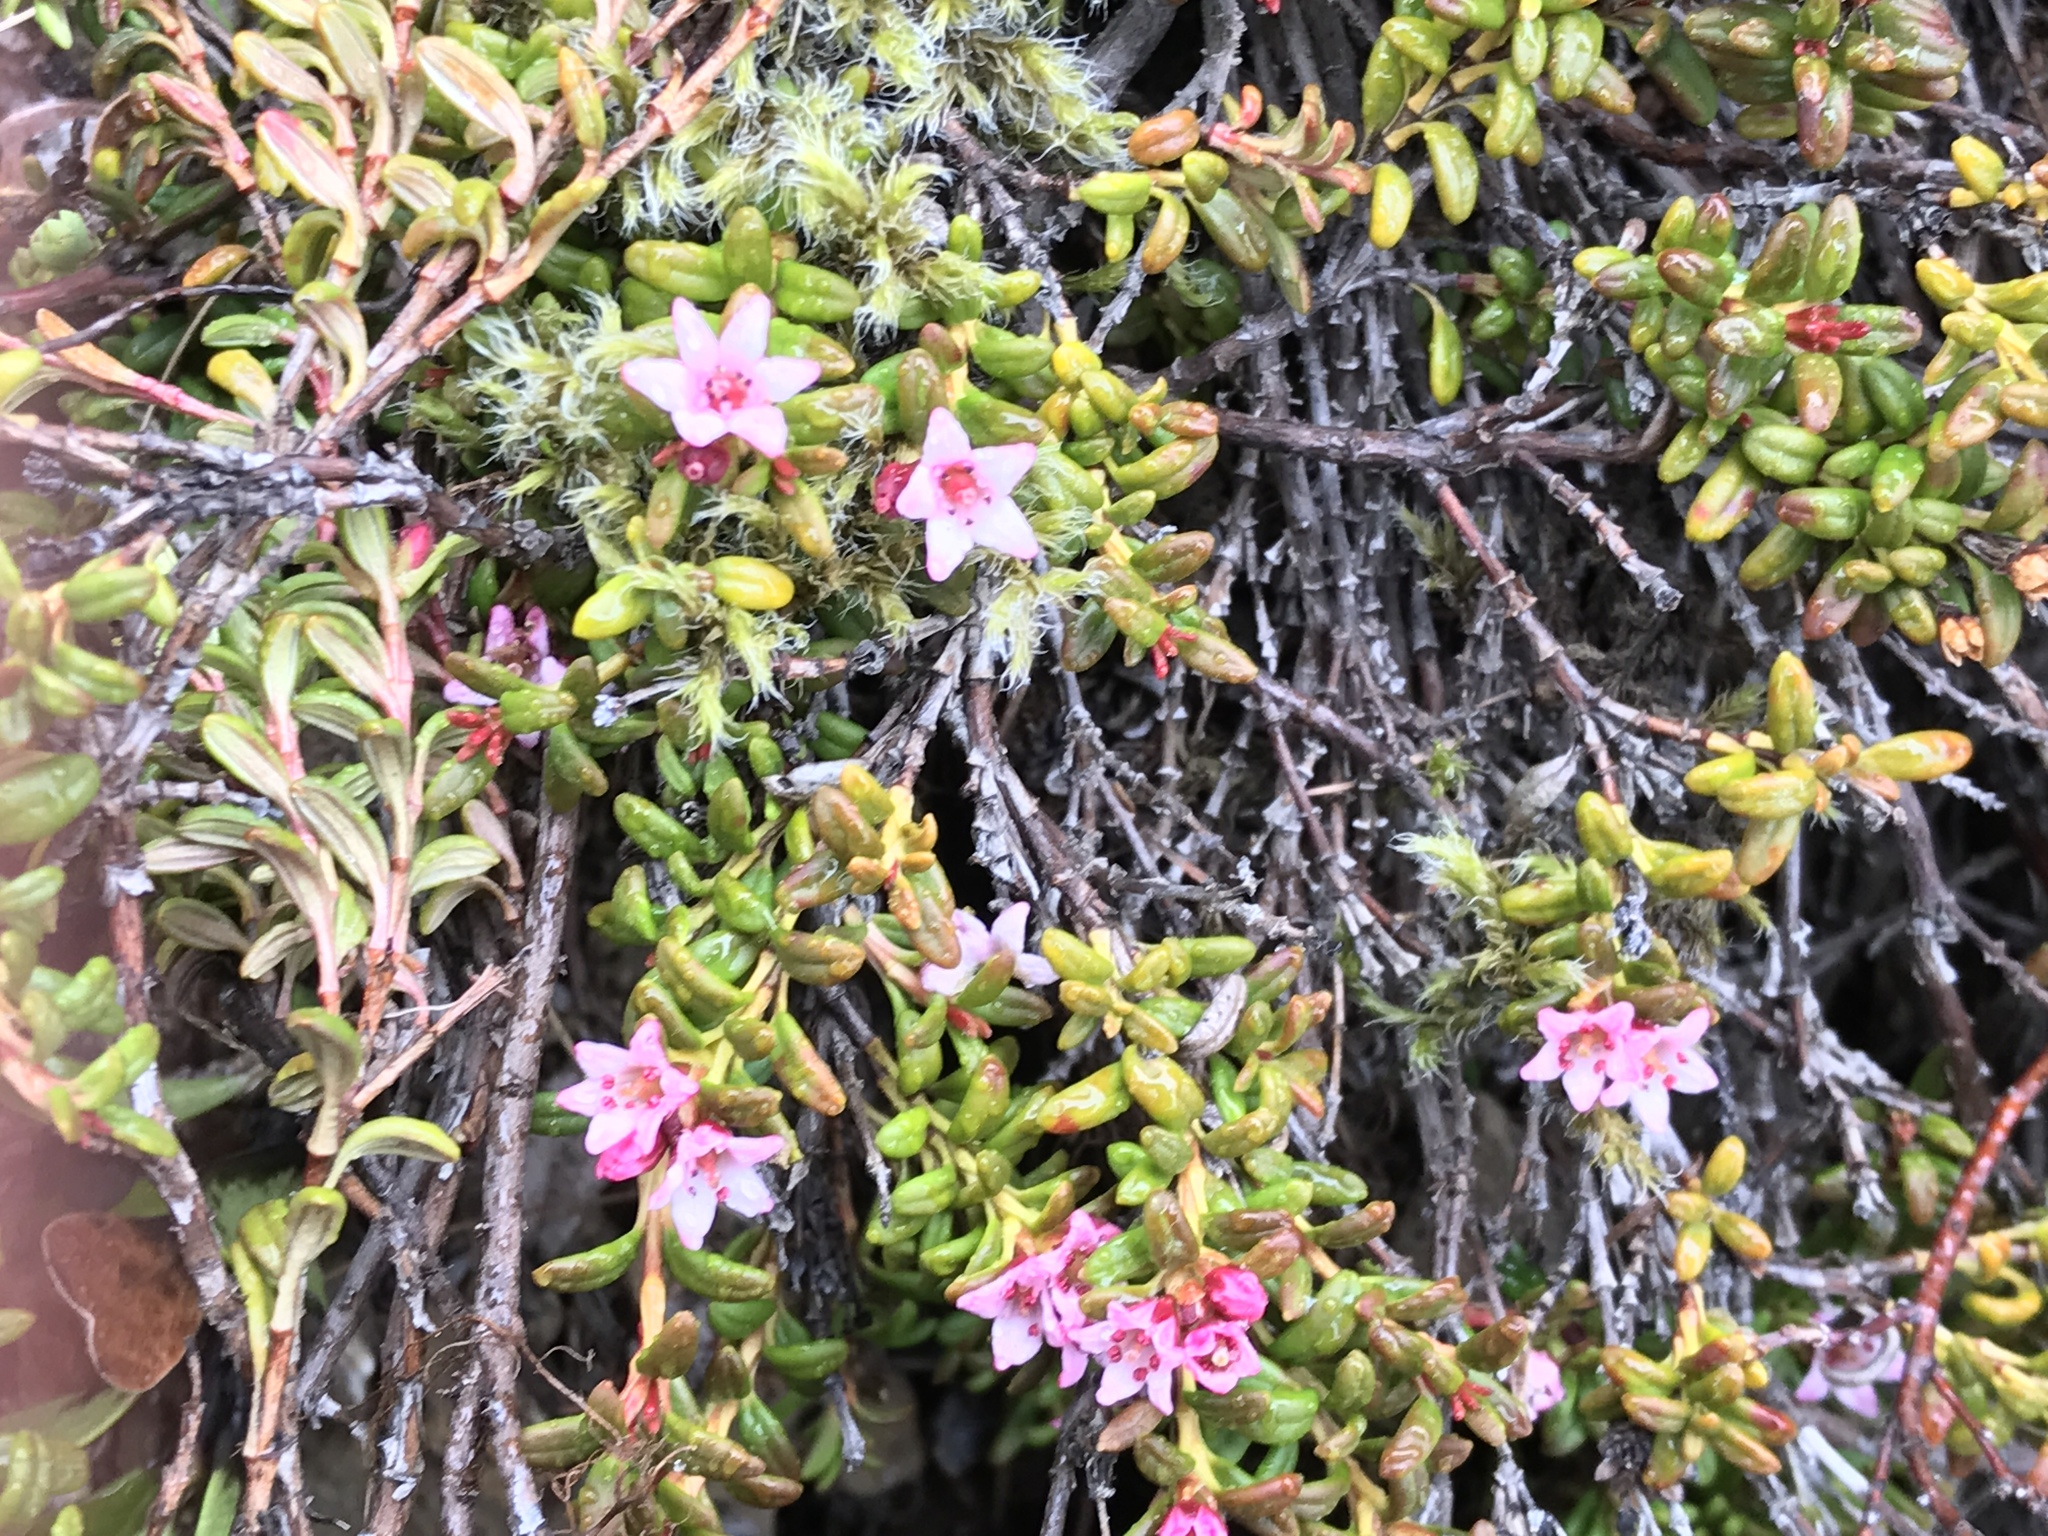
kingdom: Plantae
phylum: Tracheophyta
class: Magnoliopsida
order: Ericales
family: Ericaceae
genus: Kalmia
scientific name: Kalmia procumbens
